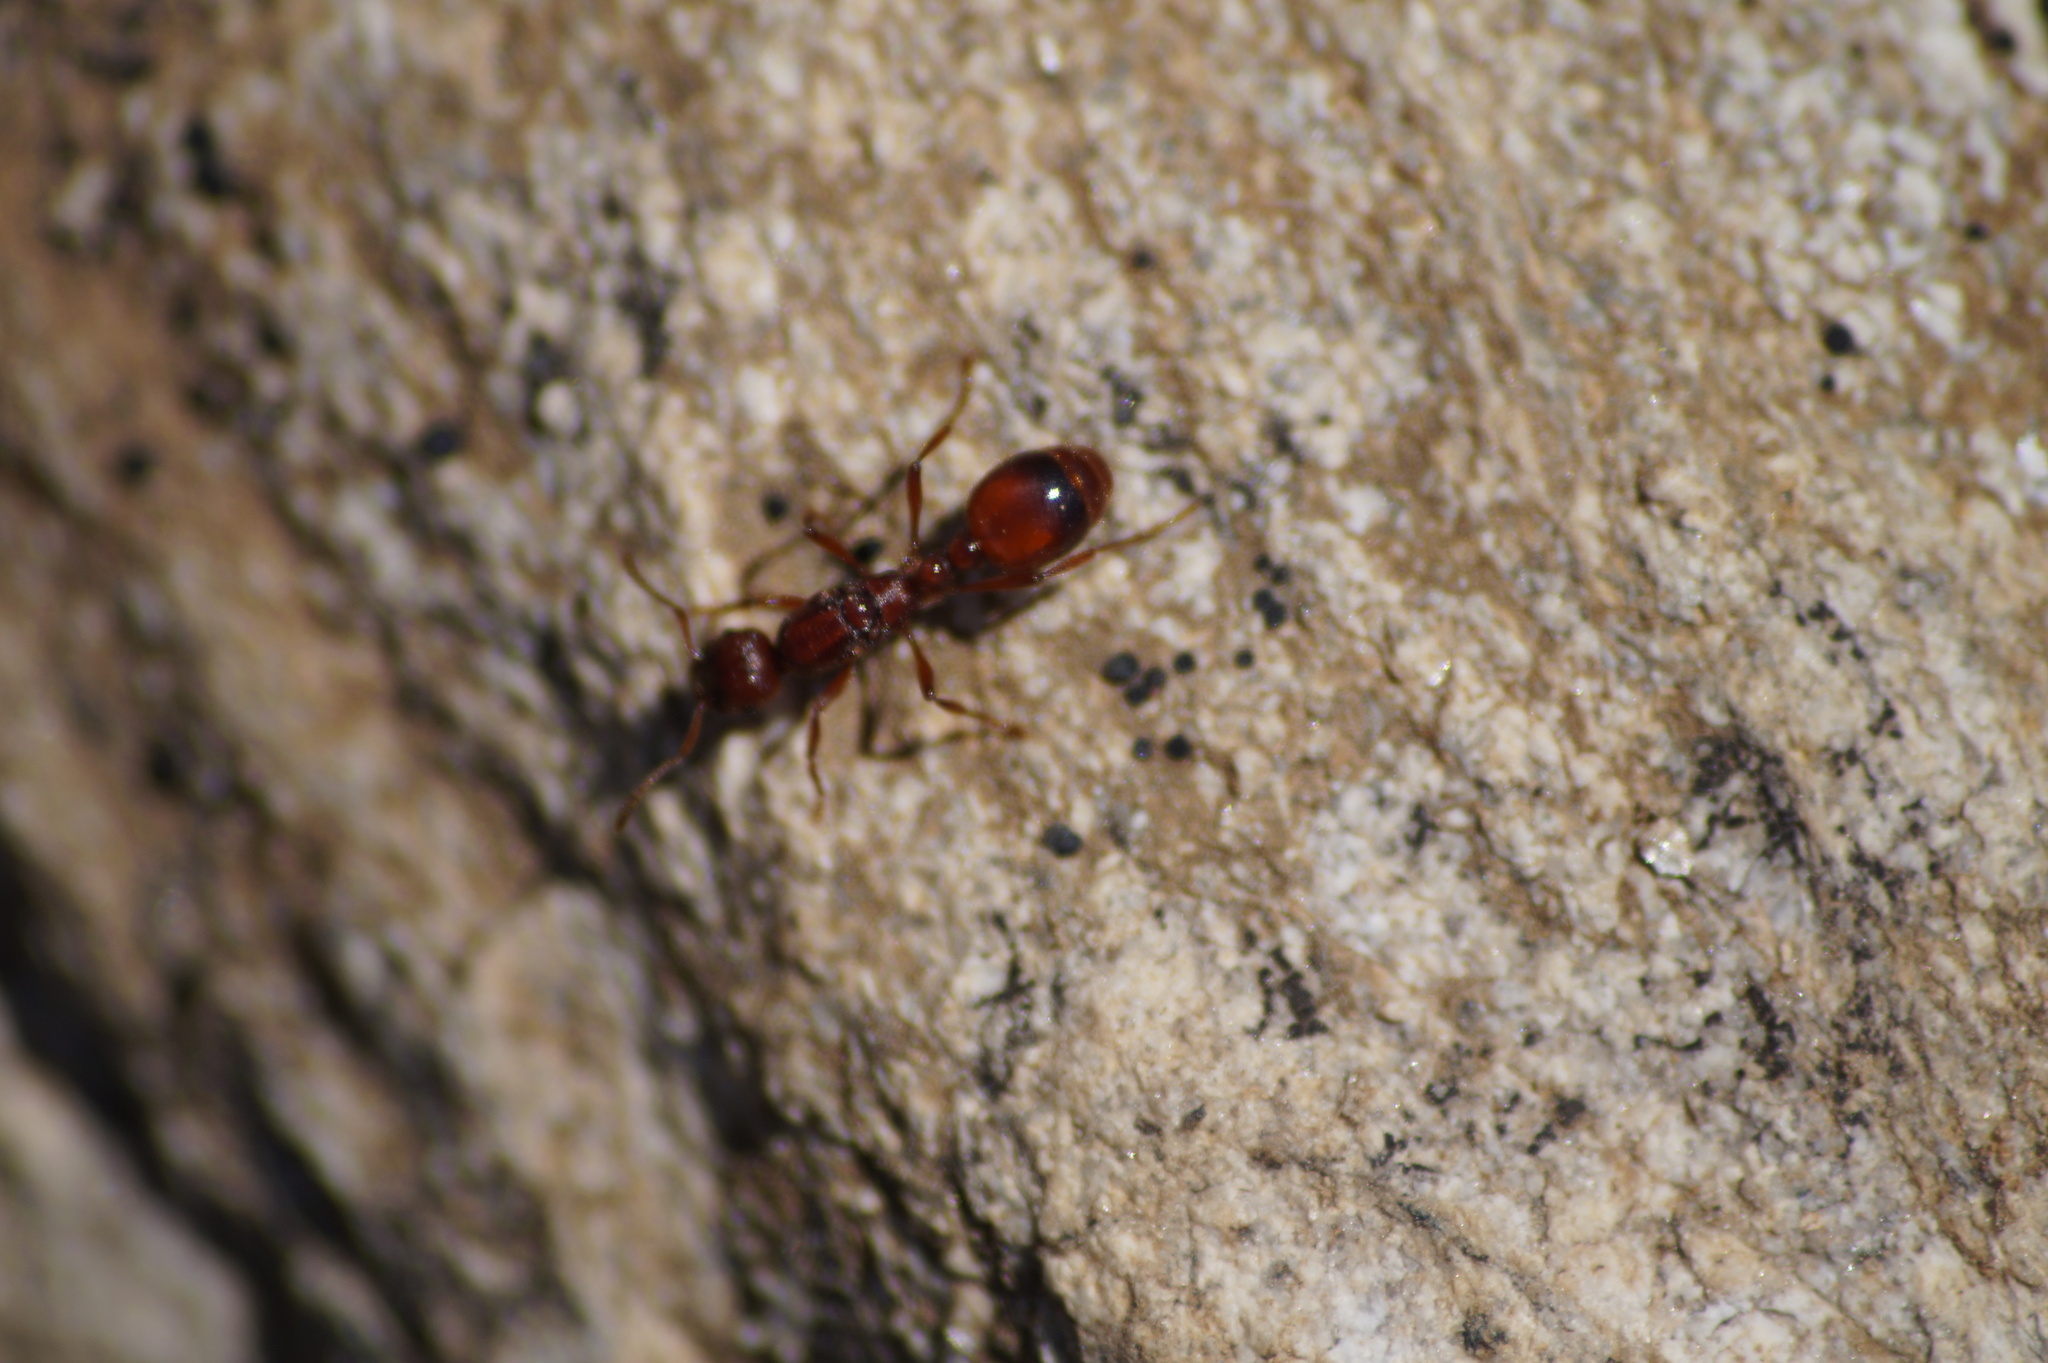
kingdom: Animalia
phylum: Arthropoda
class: Insecta
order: Hymenoptera
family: Formicidae
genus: Manica
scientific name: Manica rubida
